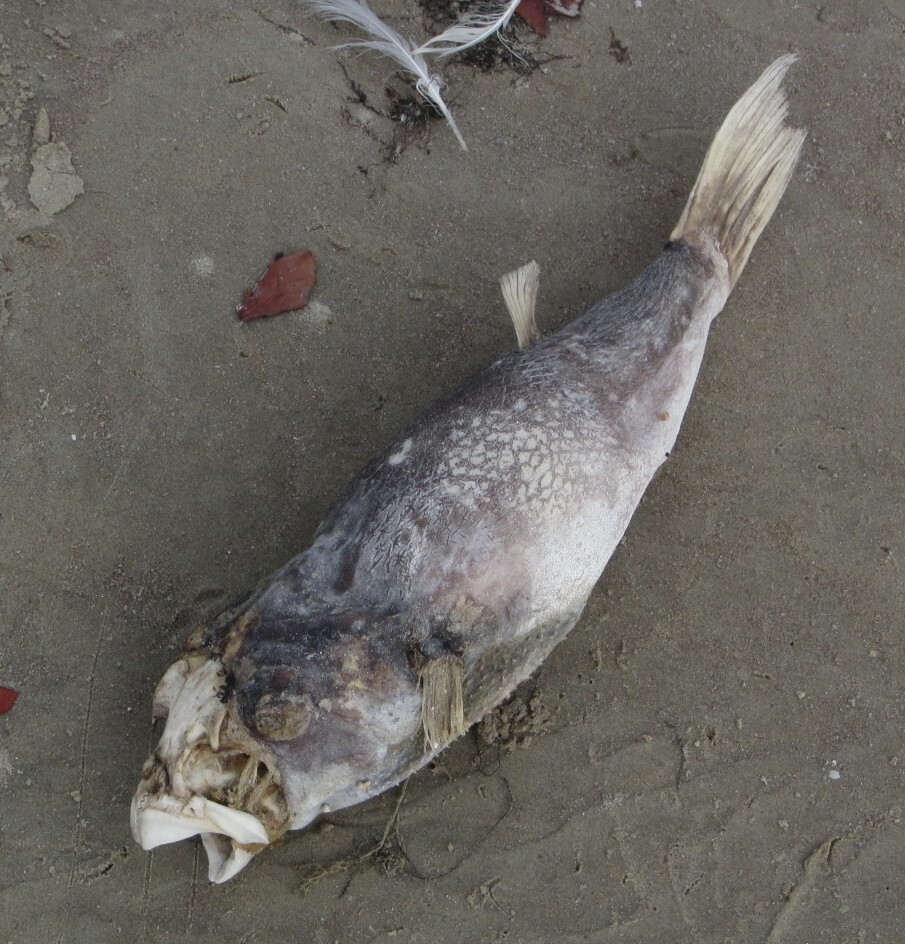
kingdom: Animalia
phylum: Chordata
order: Tetraodontiformes
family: Tetraodontidae
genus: Ephippion
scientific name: Ephippion guttifer
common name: Common puffer
